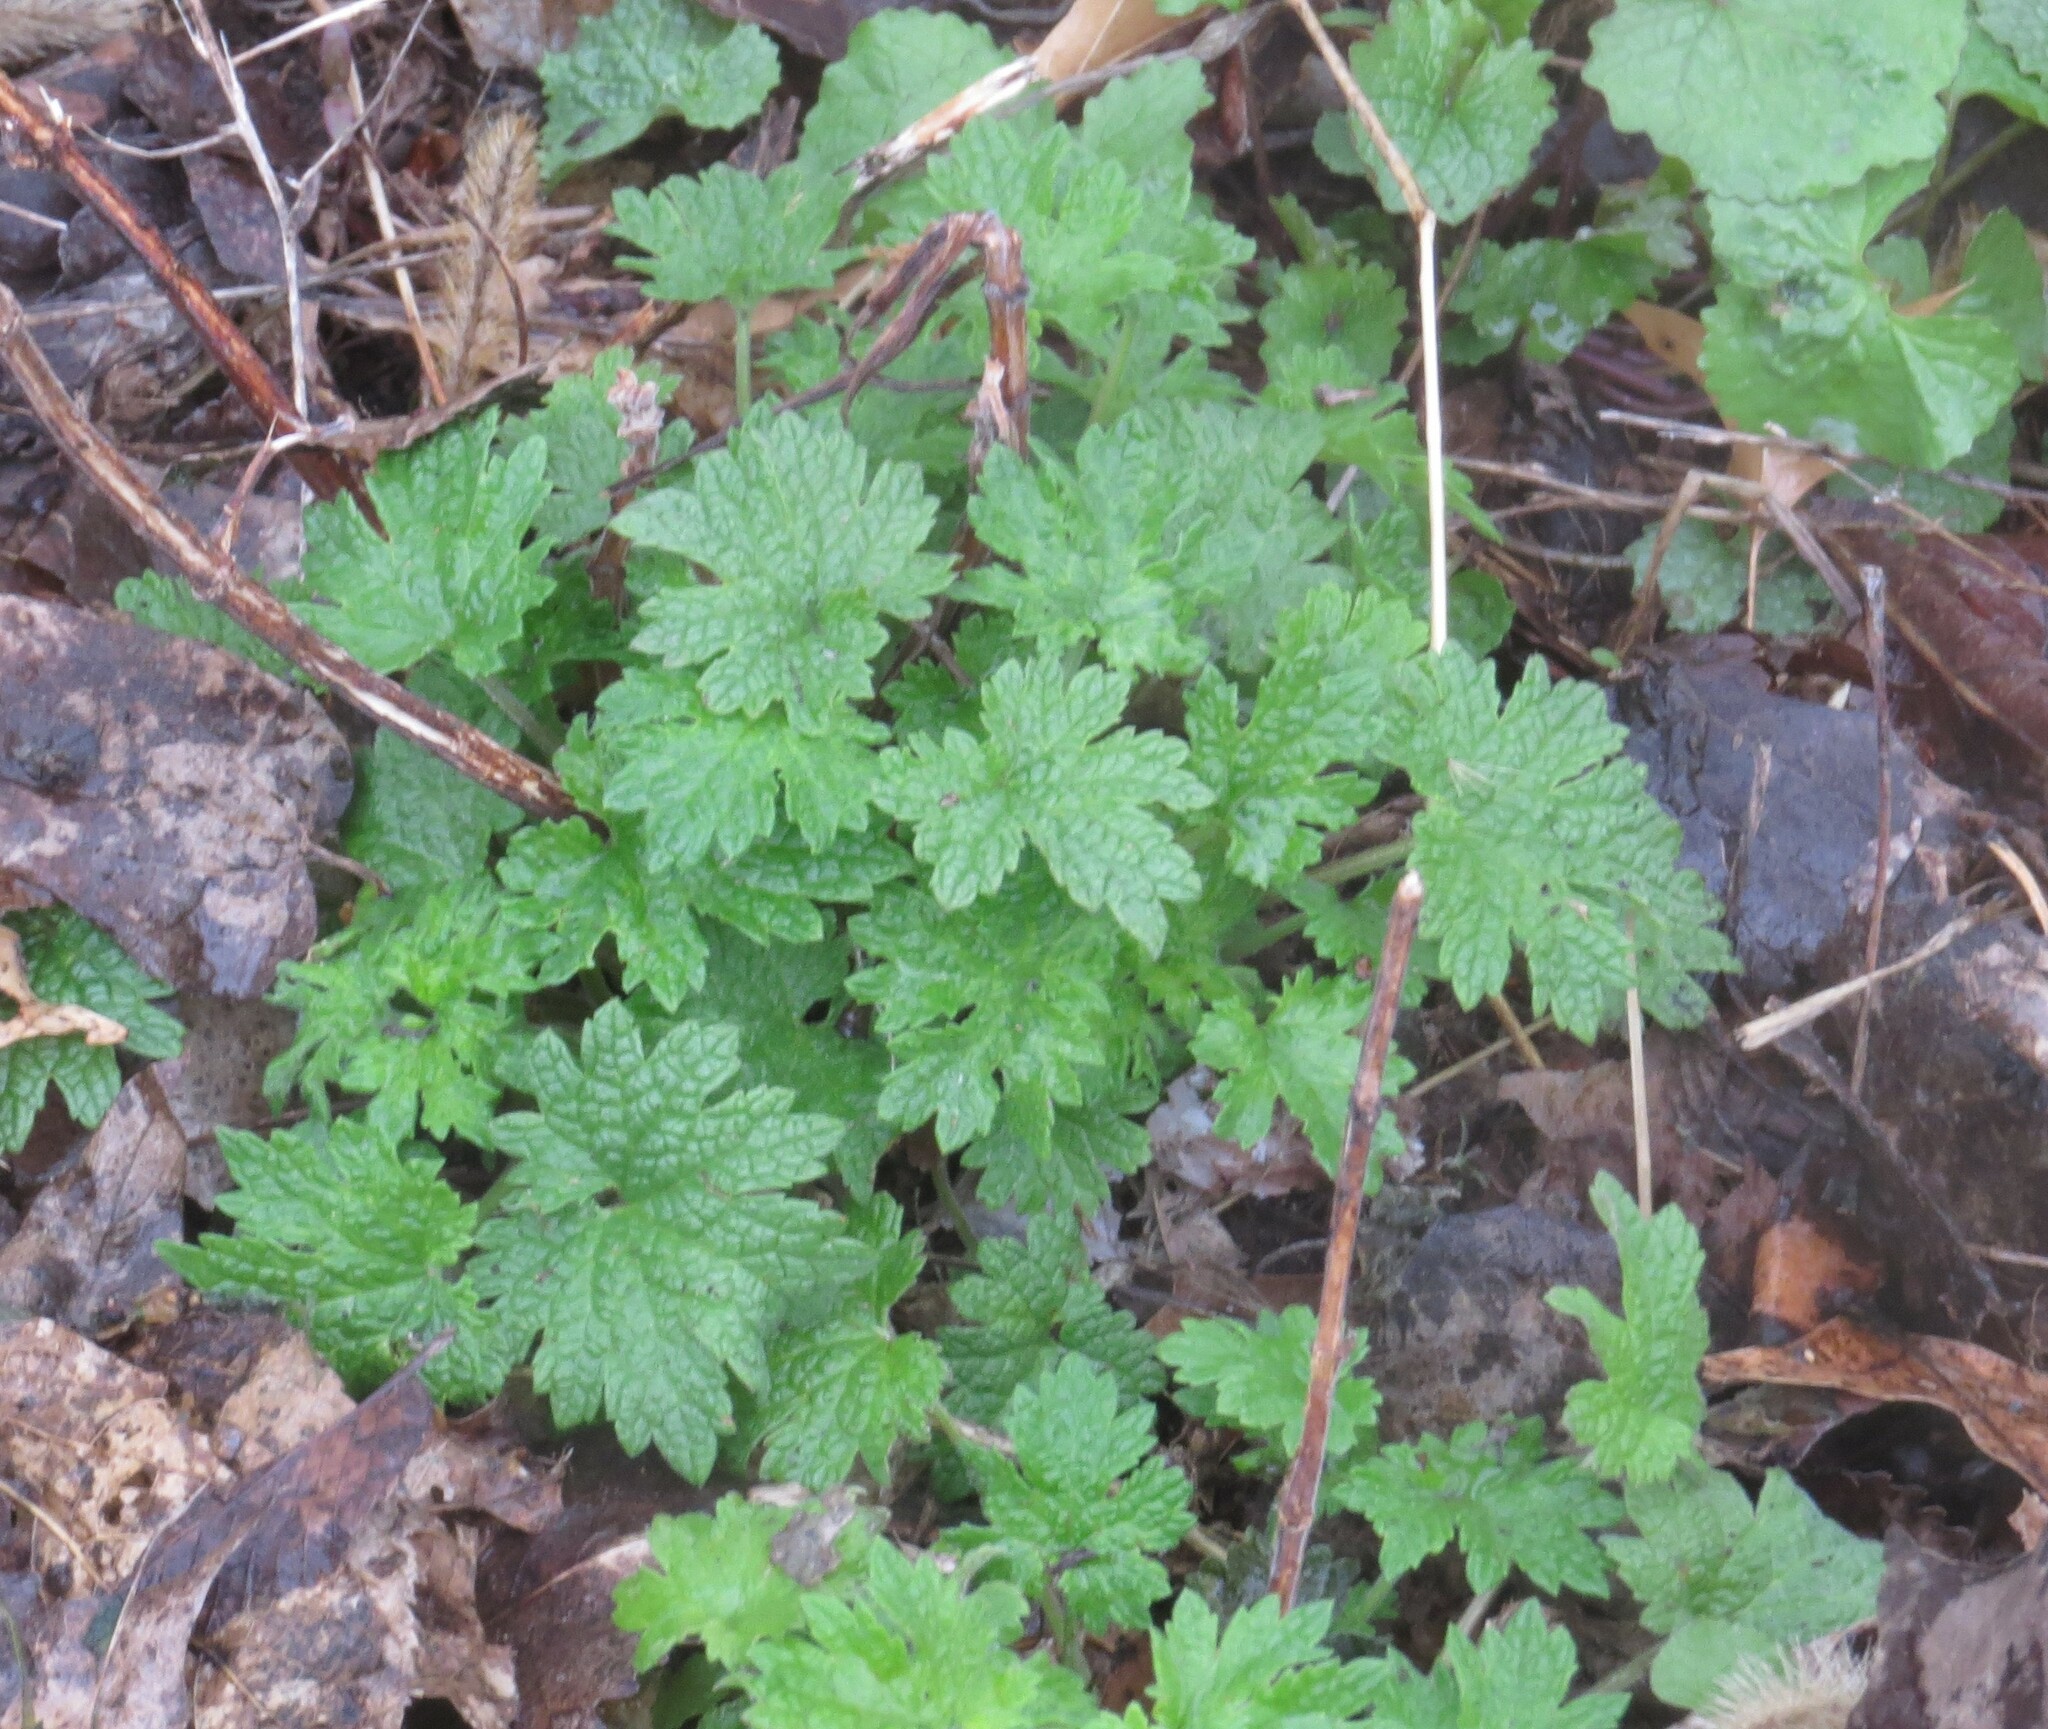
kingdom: Plantae
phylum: Tracheophyta
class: Magnoliopsida
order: Lamiales
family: Lamiaceae
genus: Leonurus
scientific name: Leonurus cardiaca
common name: Motherwort
